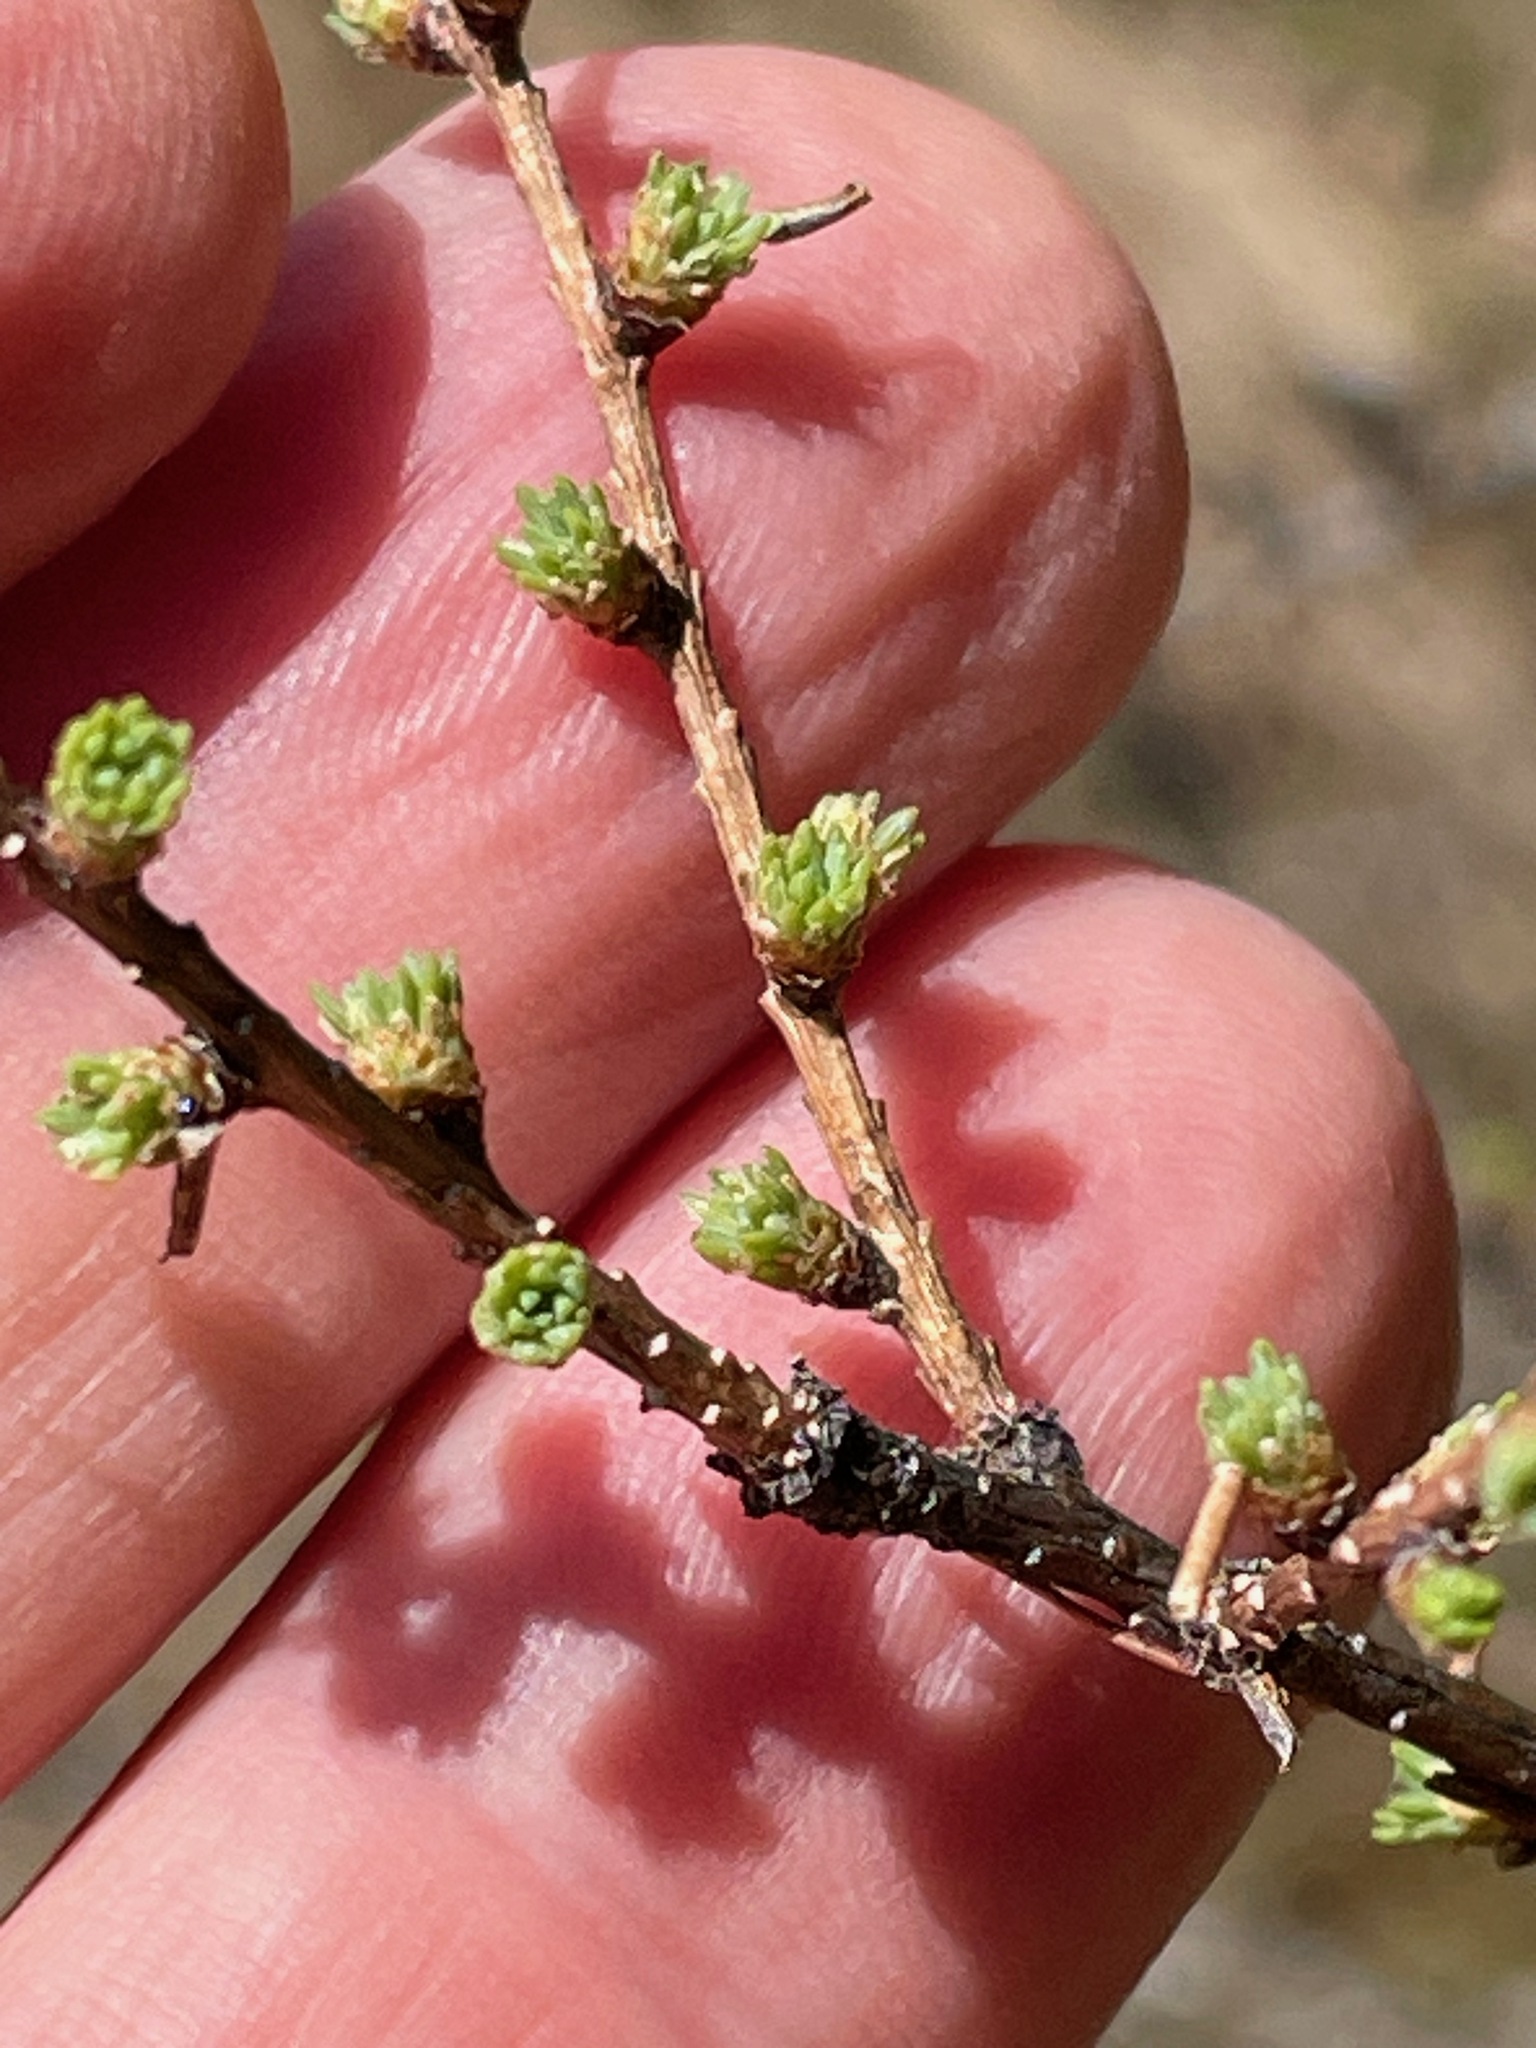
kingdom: Plantae
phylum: Tracheophyta
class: Pinopsida
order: Pinales
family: Pinaceae
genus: Larix
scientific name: Larix laricina
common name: American larch
